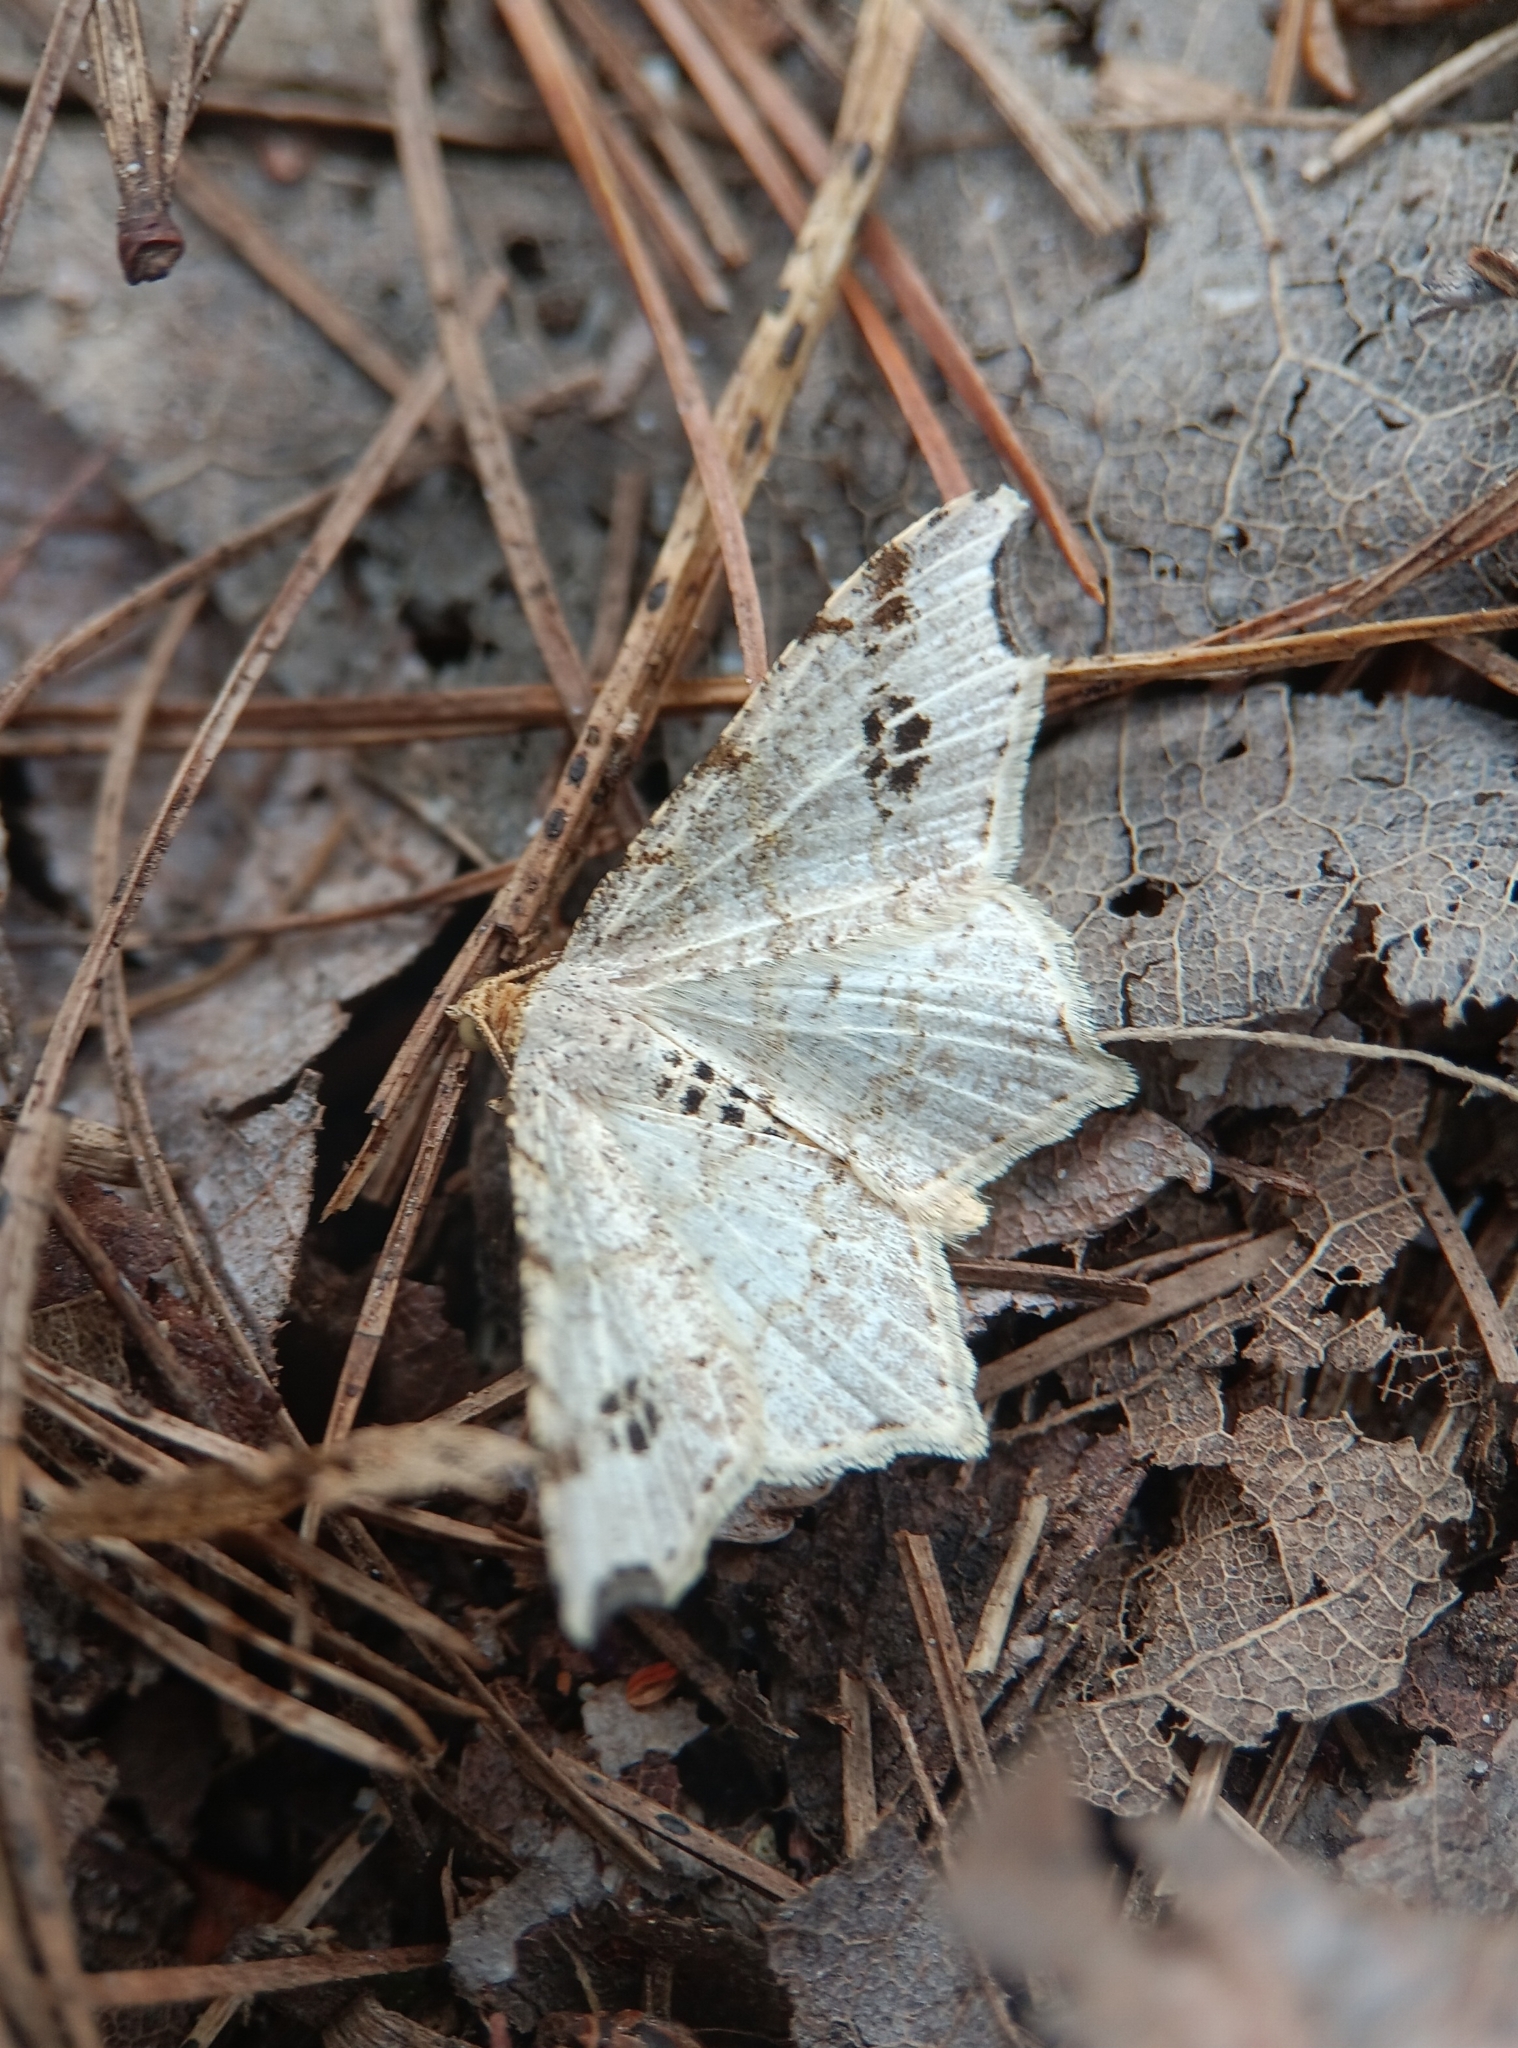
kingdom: Animalia
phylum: Arthropoda
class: Insecta
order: Lepidoptera
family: Geometridae
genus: Macaria
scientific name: Macaria aemulataria
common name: Common angle
